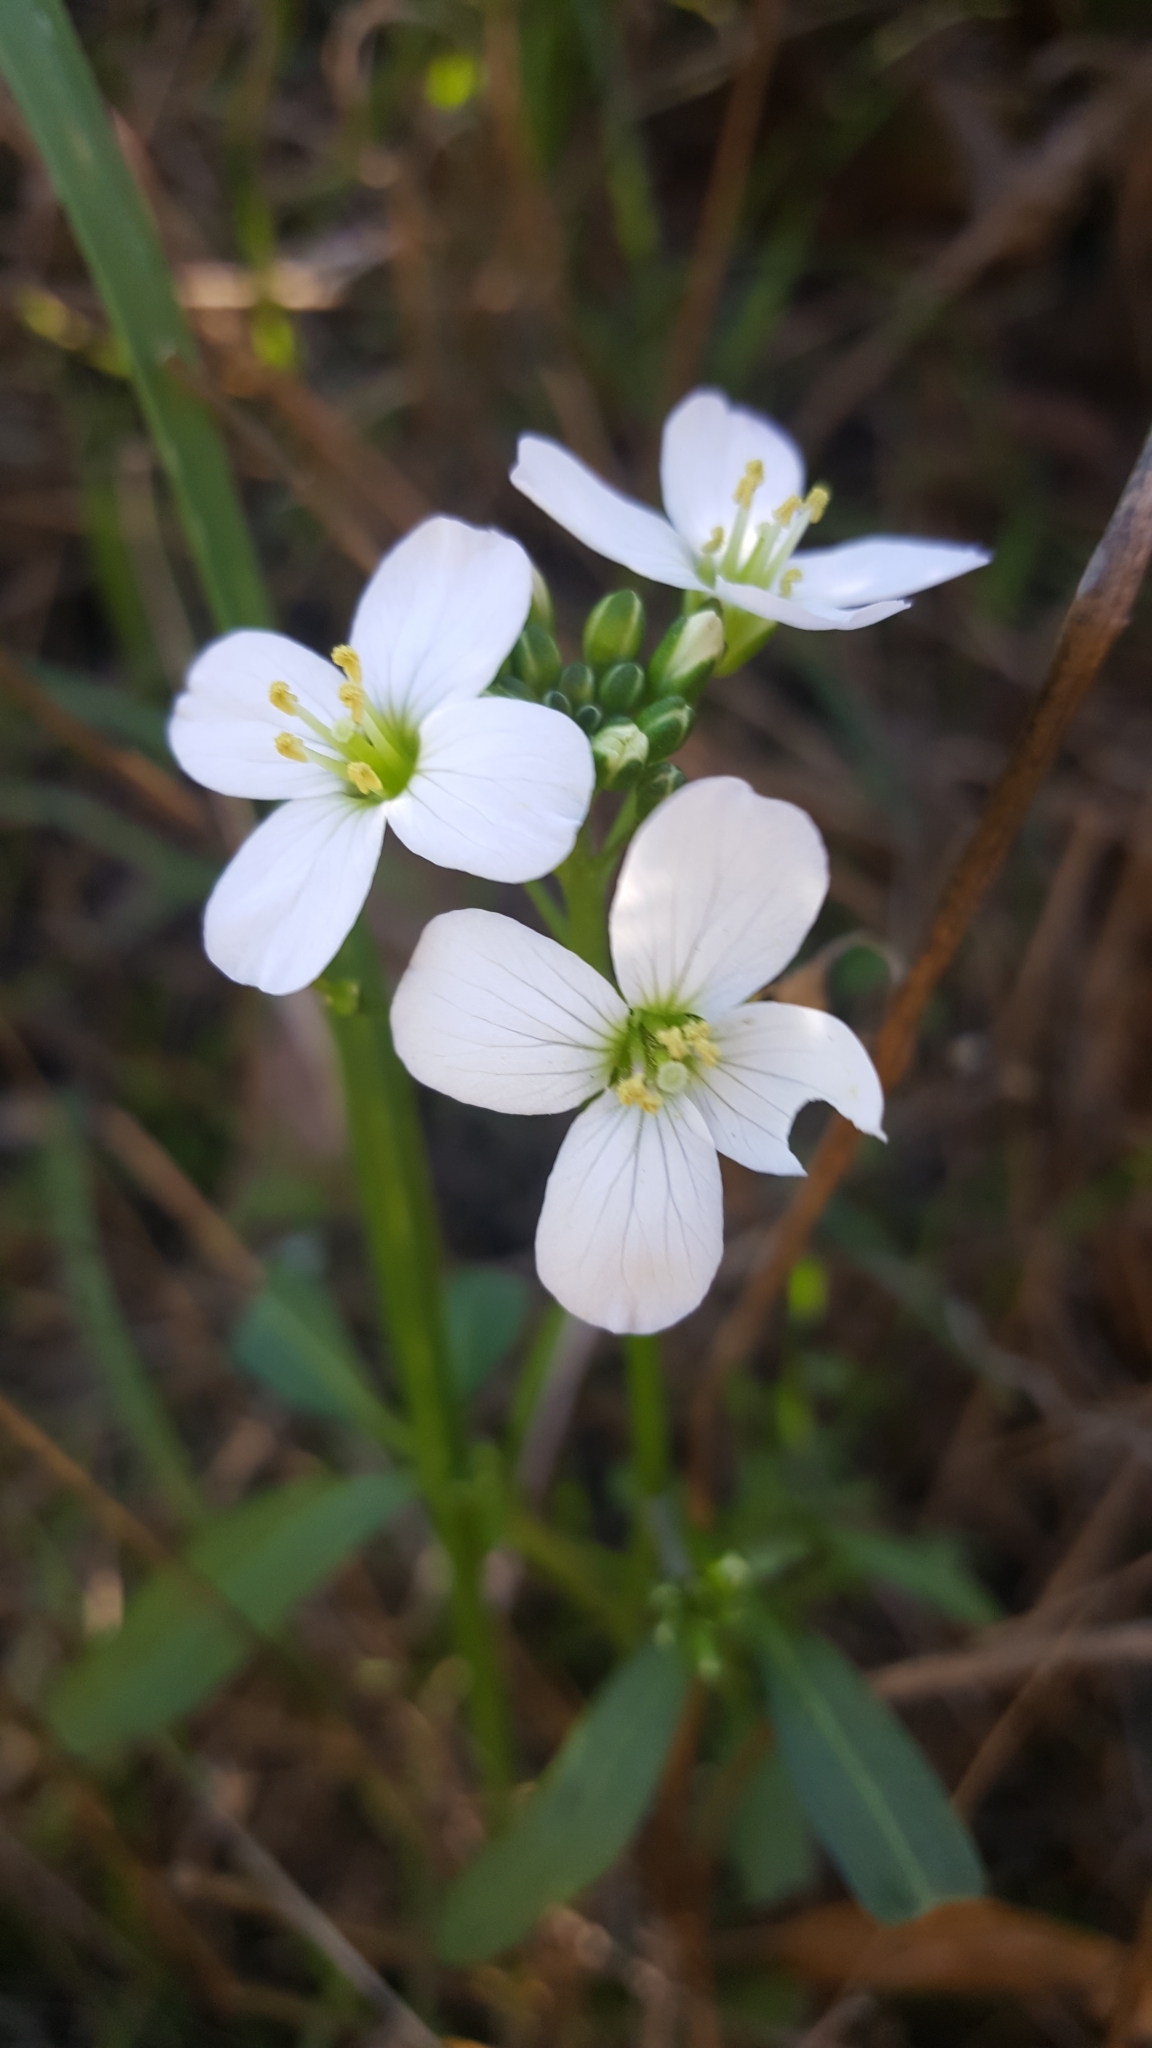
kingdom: Plantae
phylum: Tracheophyta
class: Magnoliopsida
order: Brassicales
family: Brassicaceae
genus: Cardamine
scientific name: Cardamine californica
